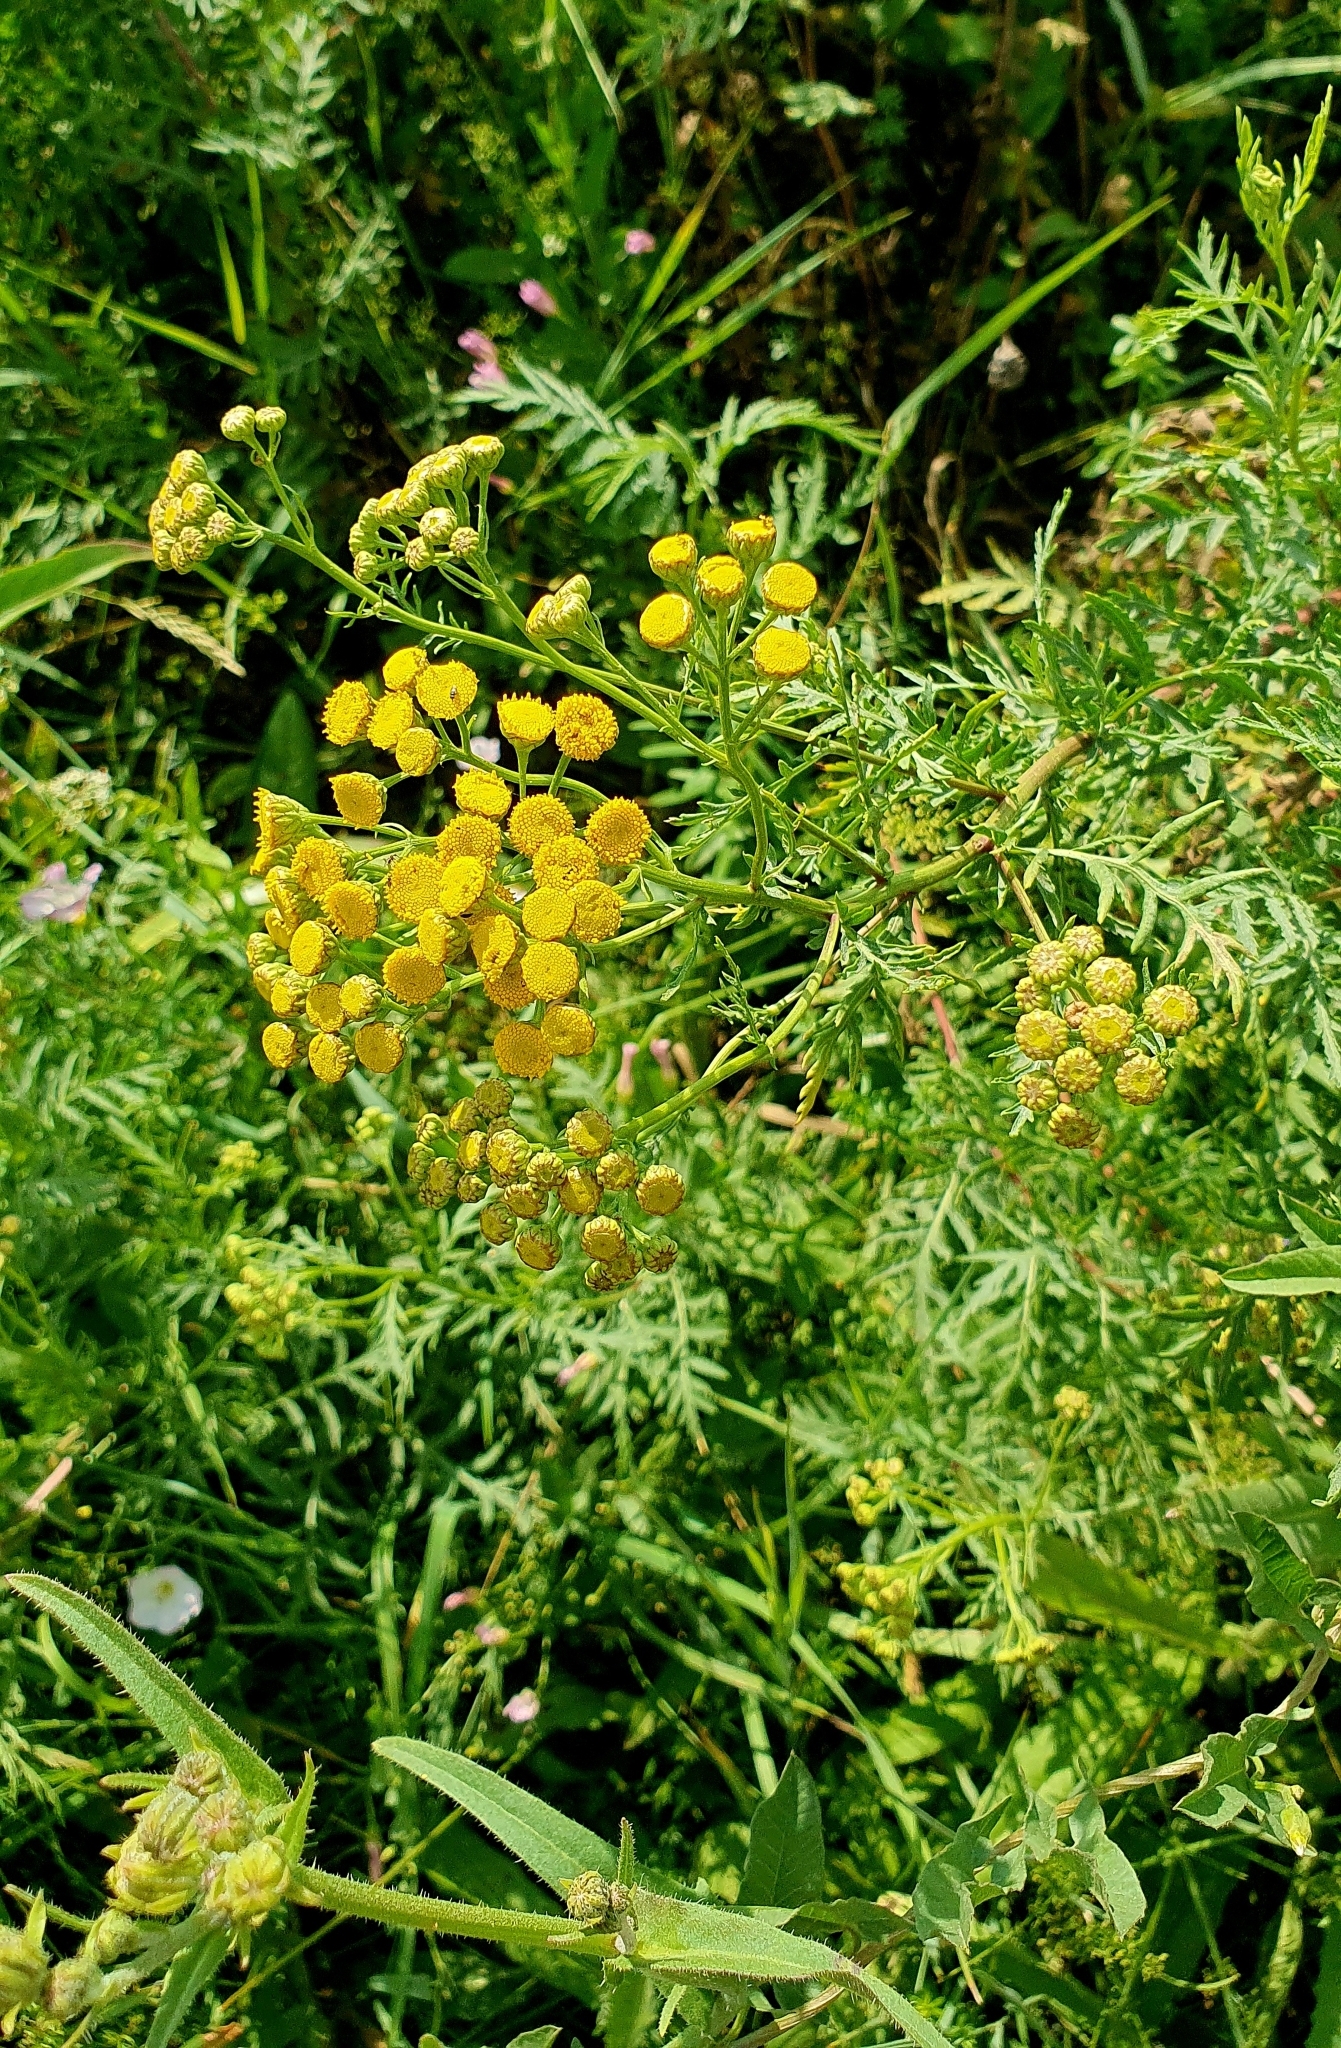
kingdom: Plantae
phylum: Tracheophyta
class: Magnoliopsida
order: Asterales
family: Asteraceae
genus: Tanacetum
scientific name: Tanacetum vulgare
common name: Common tansy
